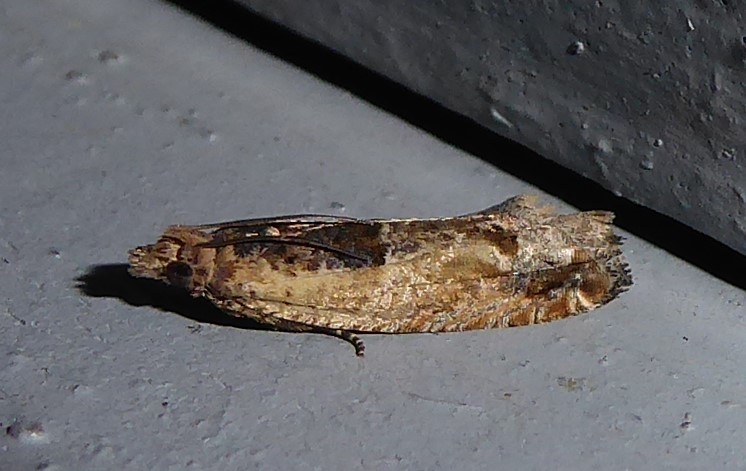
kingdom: Animalia
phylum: Arthropoda
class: Insecta
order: Lepidoptera
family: Tortricidae
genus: Crocidosema
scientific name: Crocidosema plebejana
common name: Southern bell
